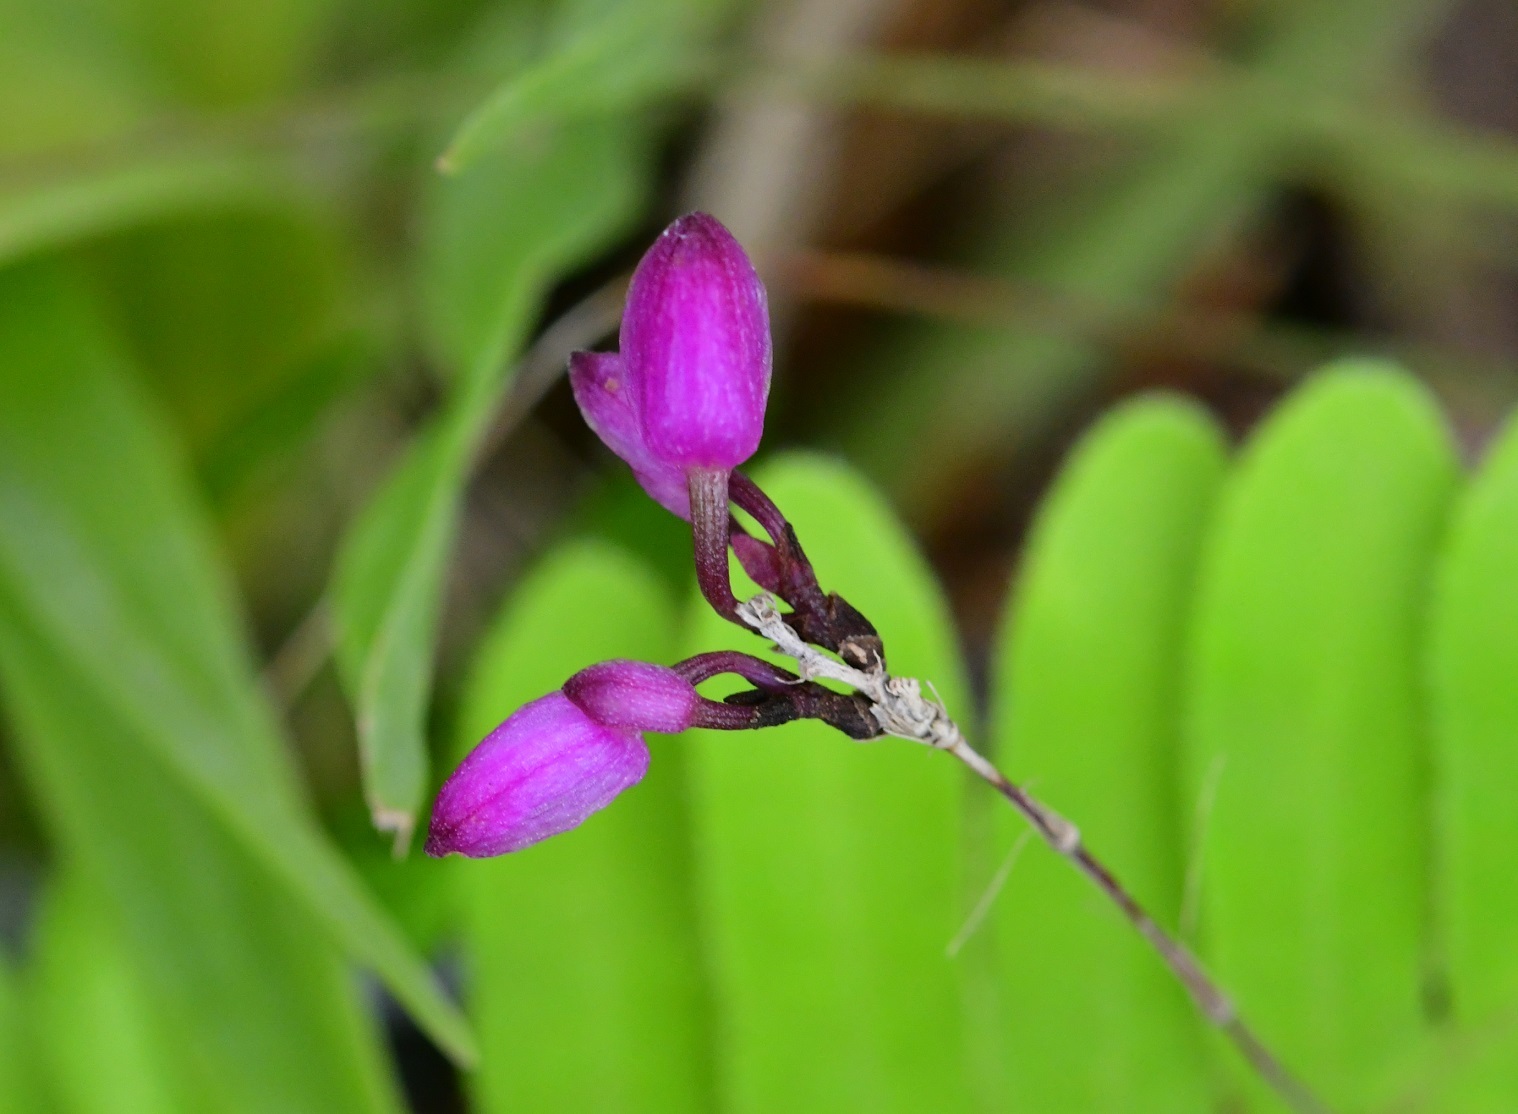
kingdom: Plantae
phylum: Tracheophyta
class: Liliopsida
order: Asparagales
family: Orchidaceae
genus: Domingoa
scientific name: Domingoa purpurea
